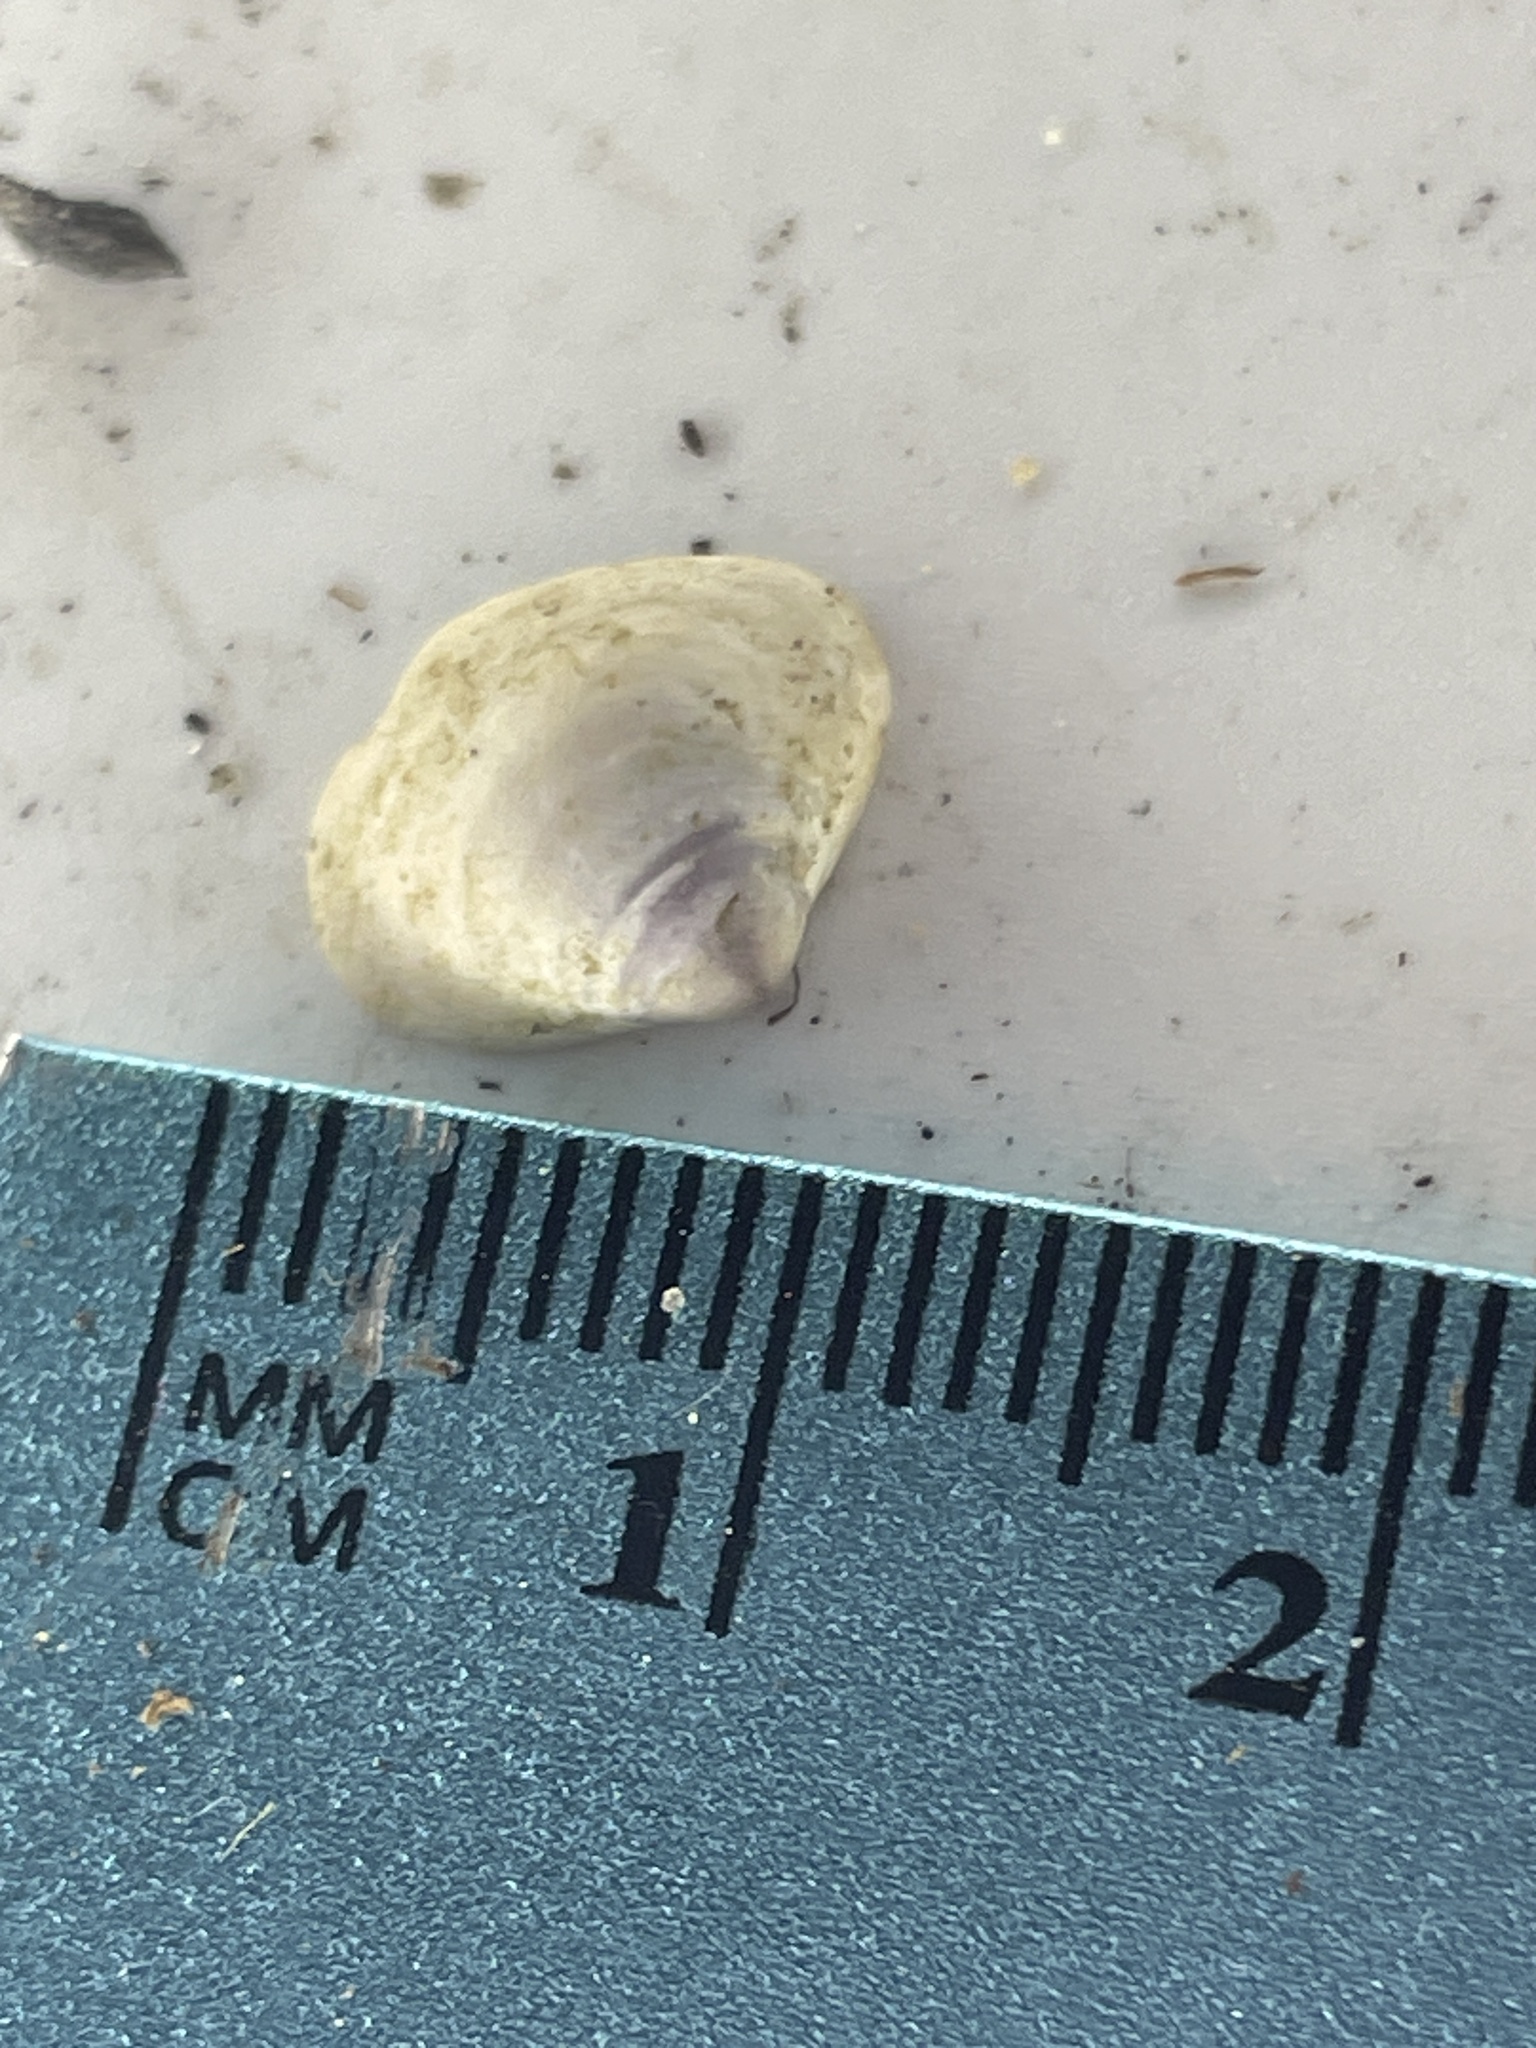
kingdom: Animalia
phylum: Mollusca
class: Bivalvia
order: Venerida
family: Cyrenidae
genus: Corbicula
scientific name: Corbicula fluminea
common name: Asian clam
